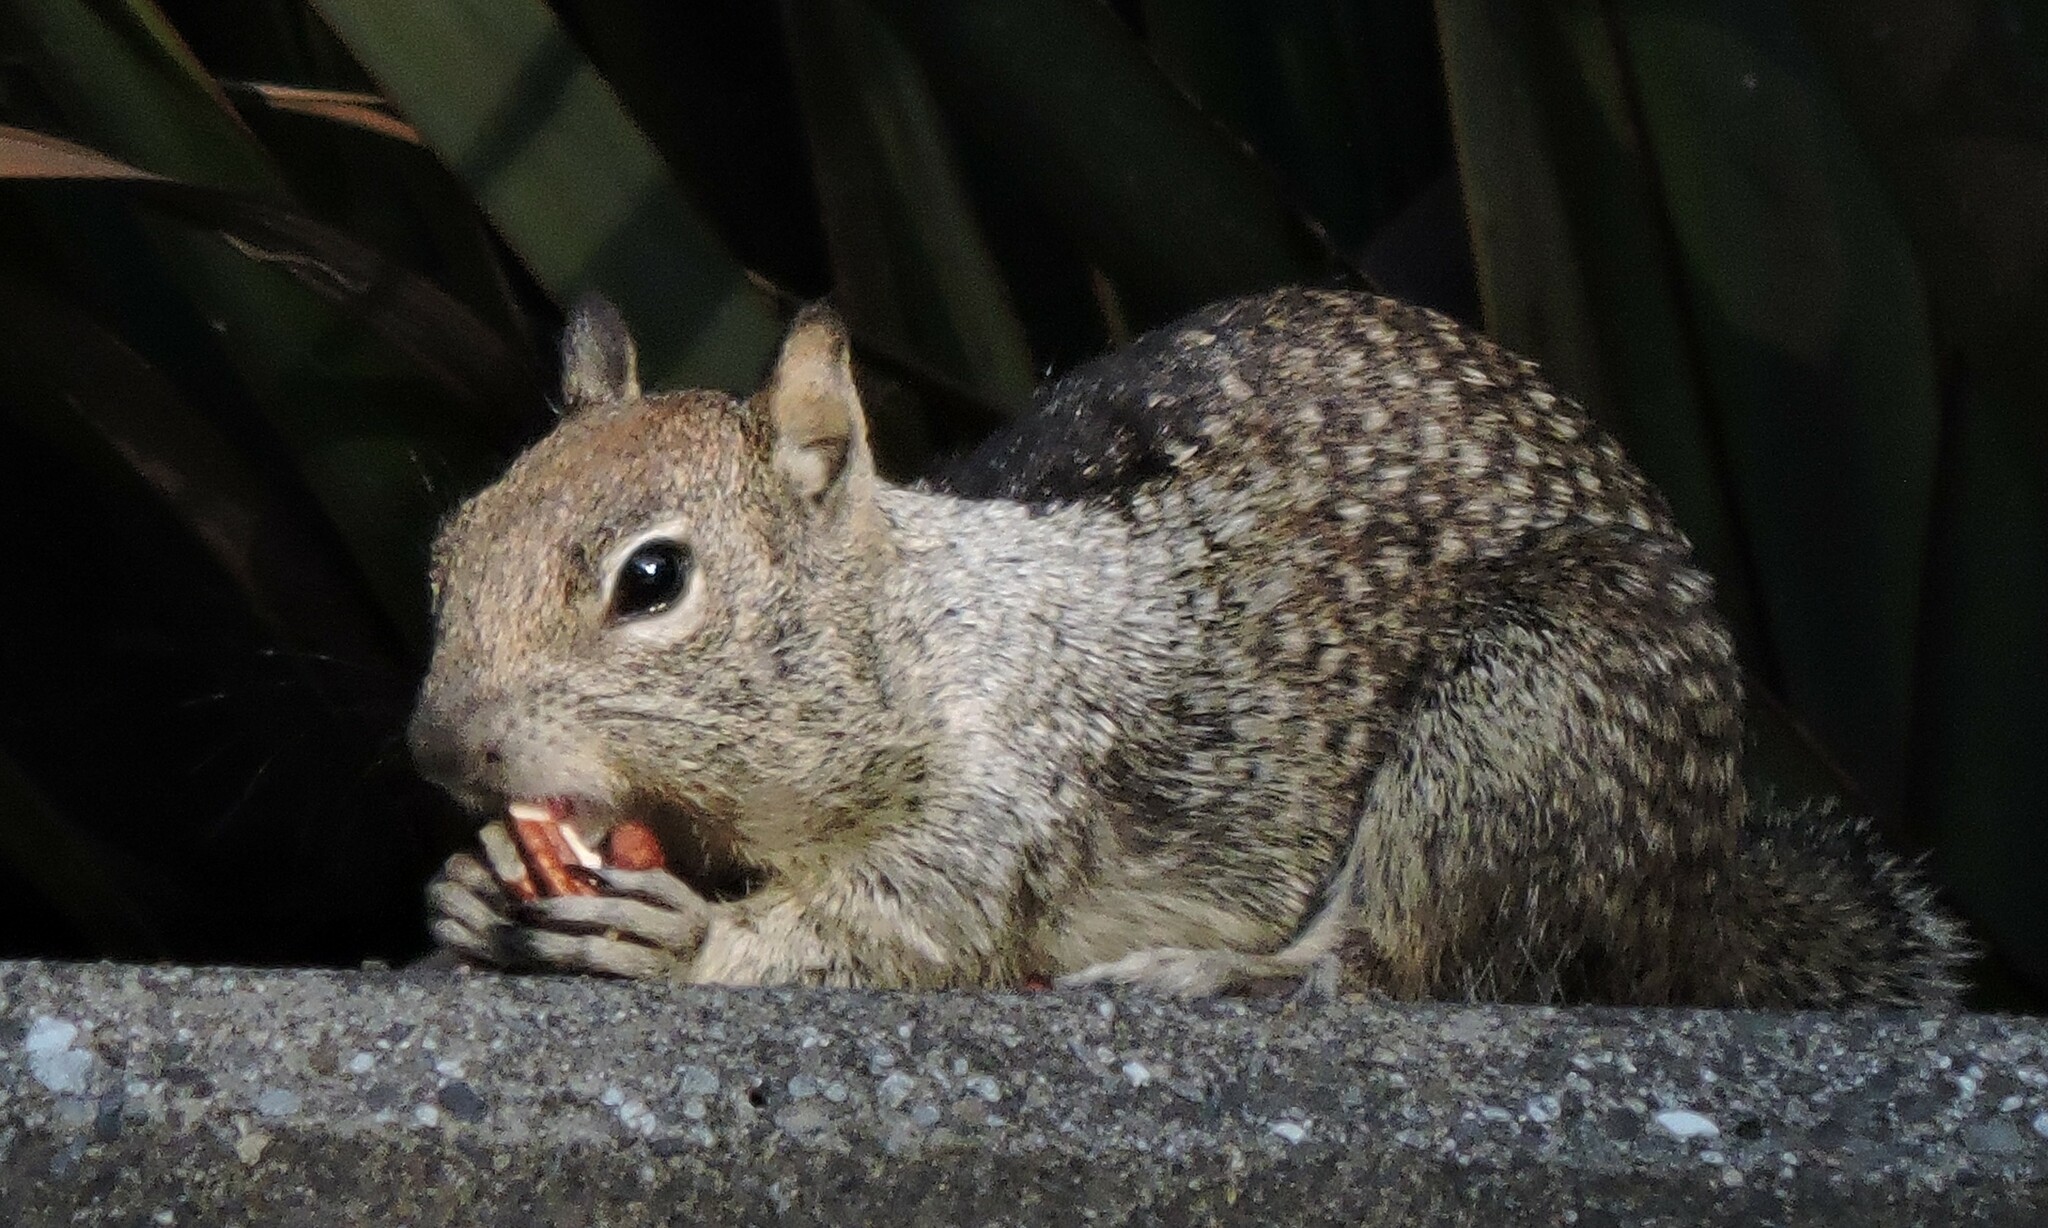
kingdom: Animalia
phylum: Chordata
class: Mammalia
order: Rodentia
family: Sciuridae
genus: Otospermophilus
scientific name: Otospermophilus beecheyi
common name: California ground squirrel
